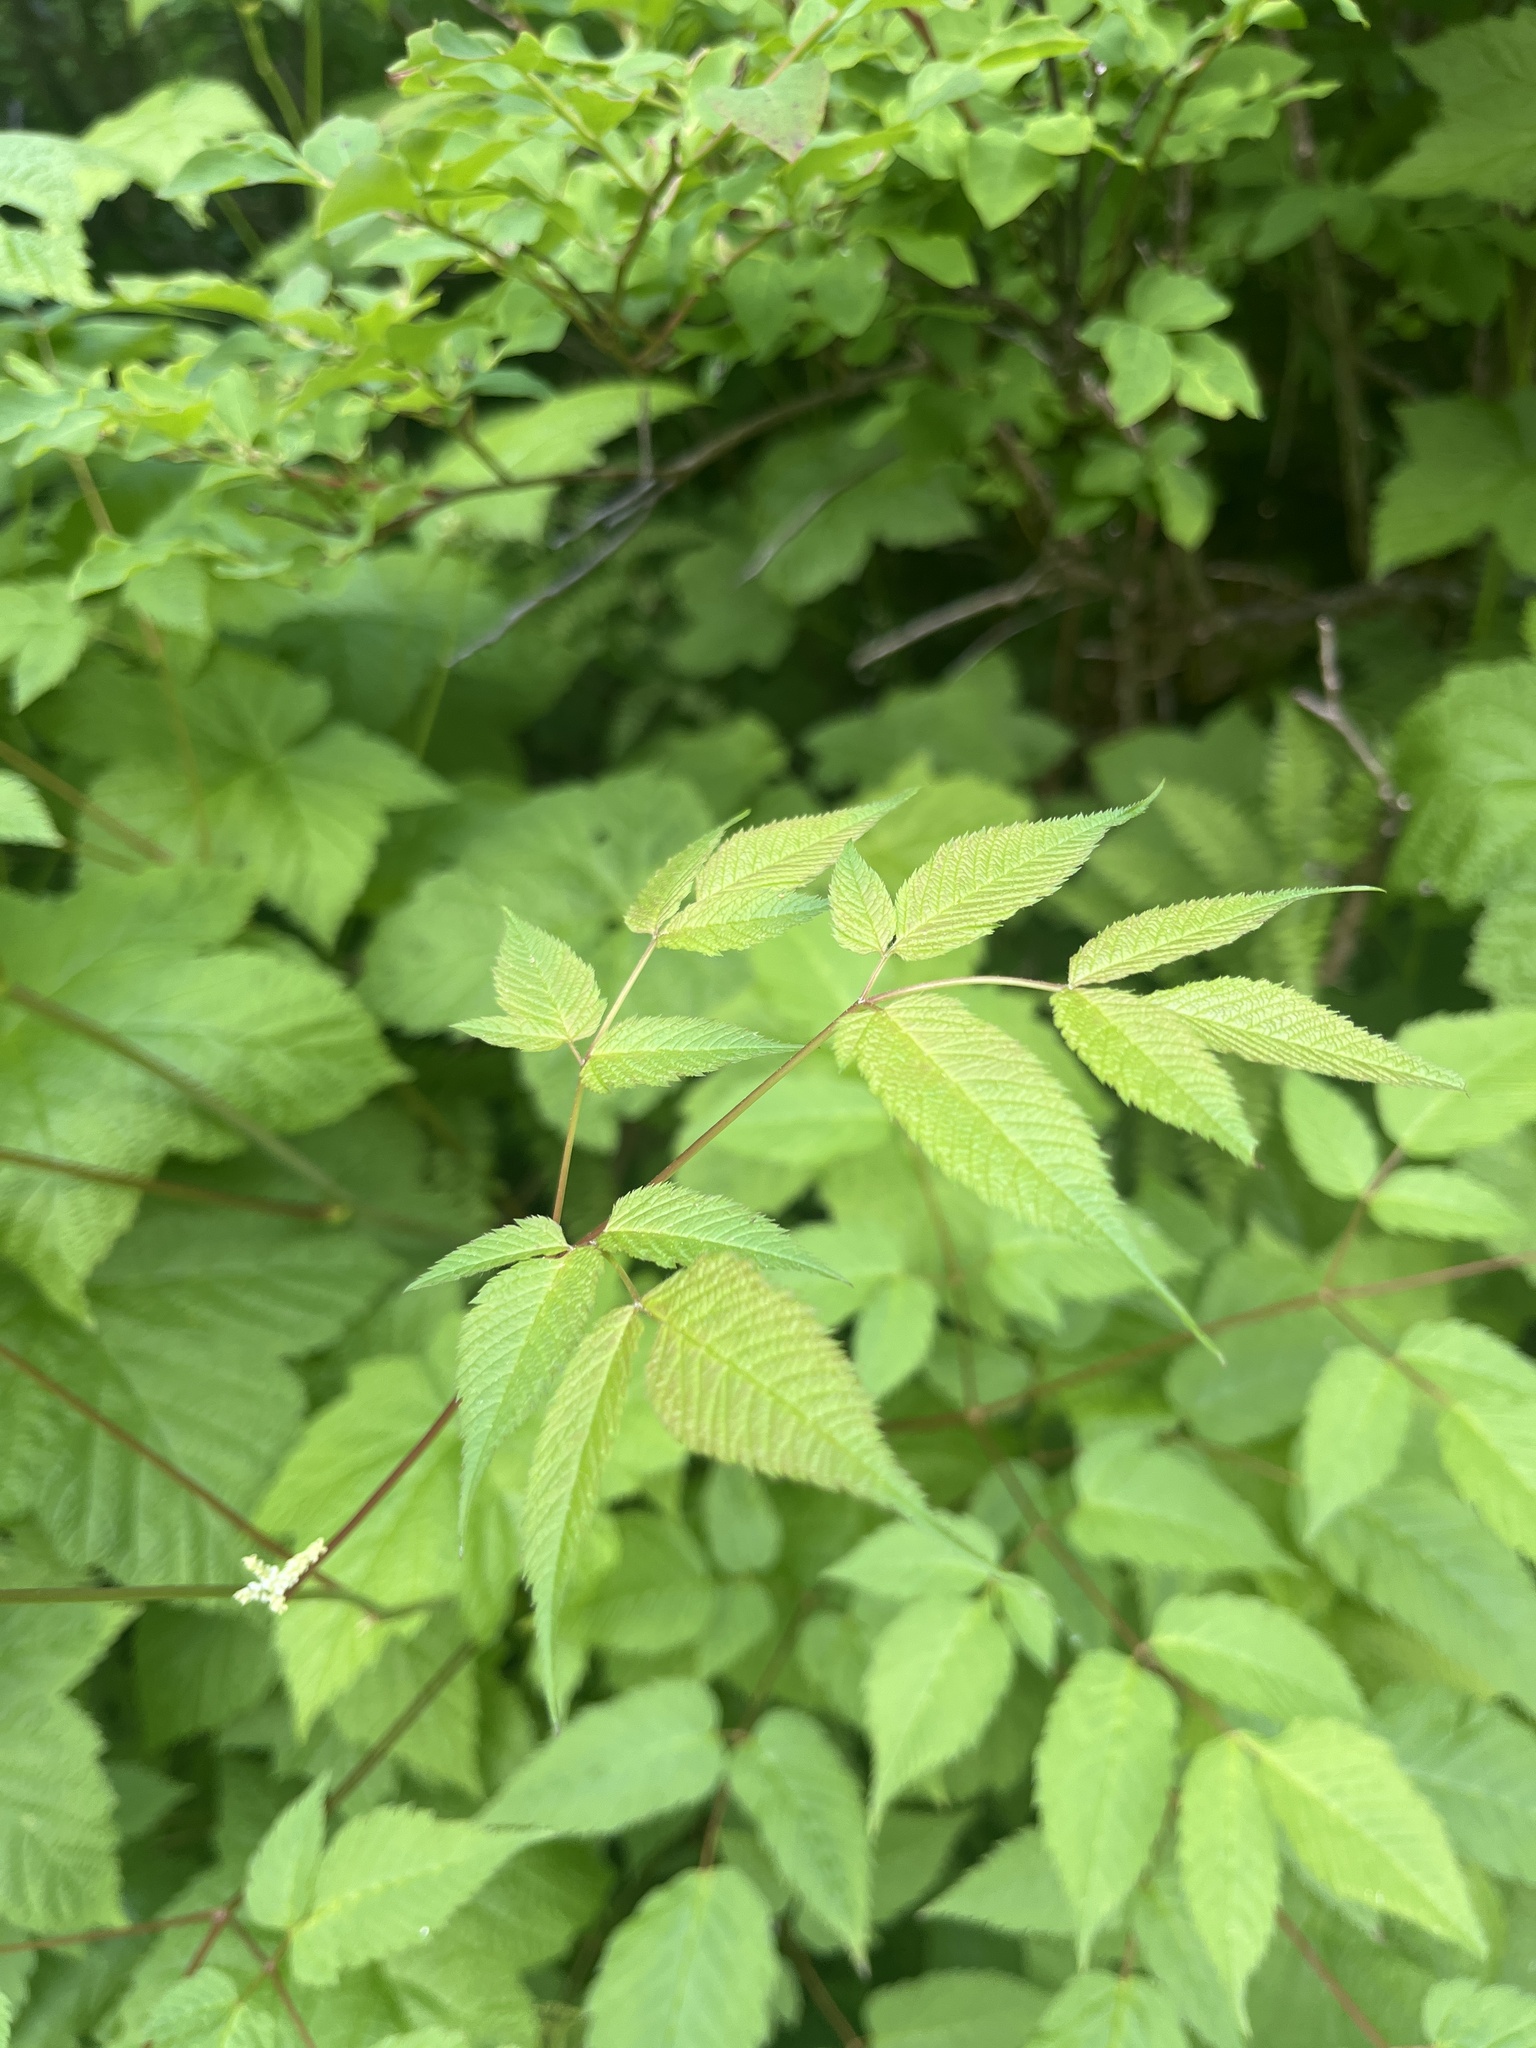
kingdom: Plantae
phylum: Tracheophyta
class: Magnoliopsida
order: Rosales
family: Rosaceae
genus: Aruncus
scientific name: Aruncus dioicus
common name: Buck's-beard
